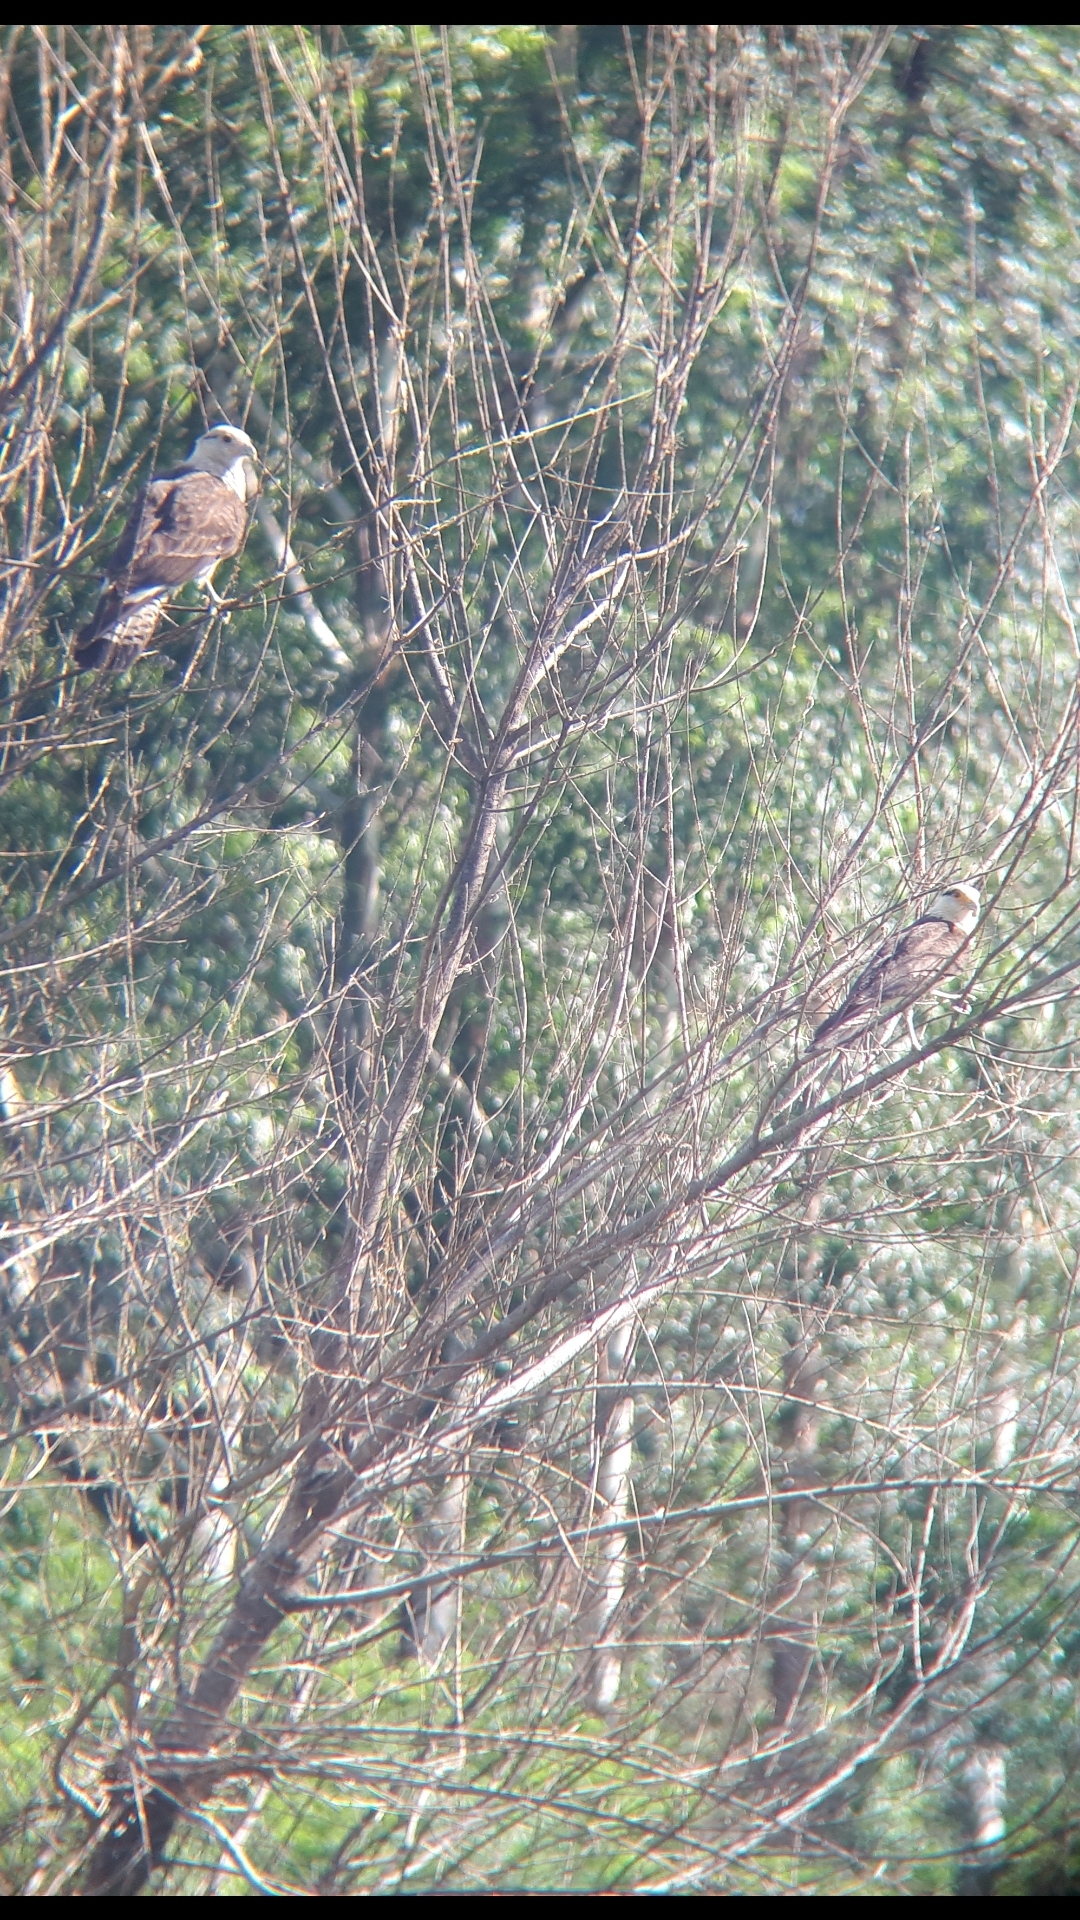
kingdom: Animalia
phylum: Chordata
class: Aves
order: Falconiformes
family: Falconidae
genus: Daptrius
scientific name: Daptrius
